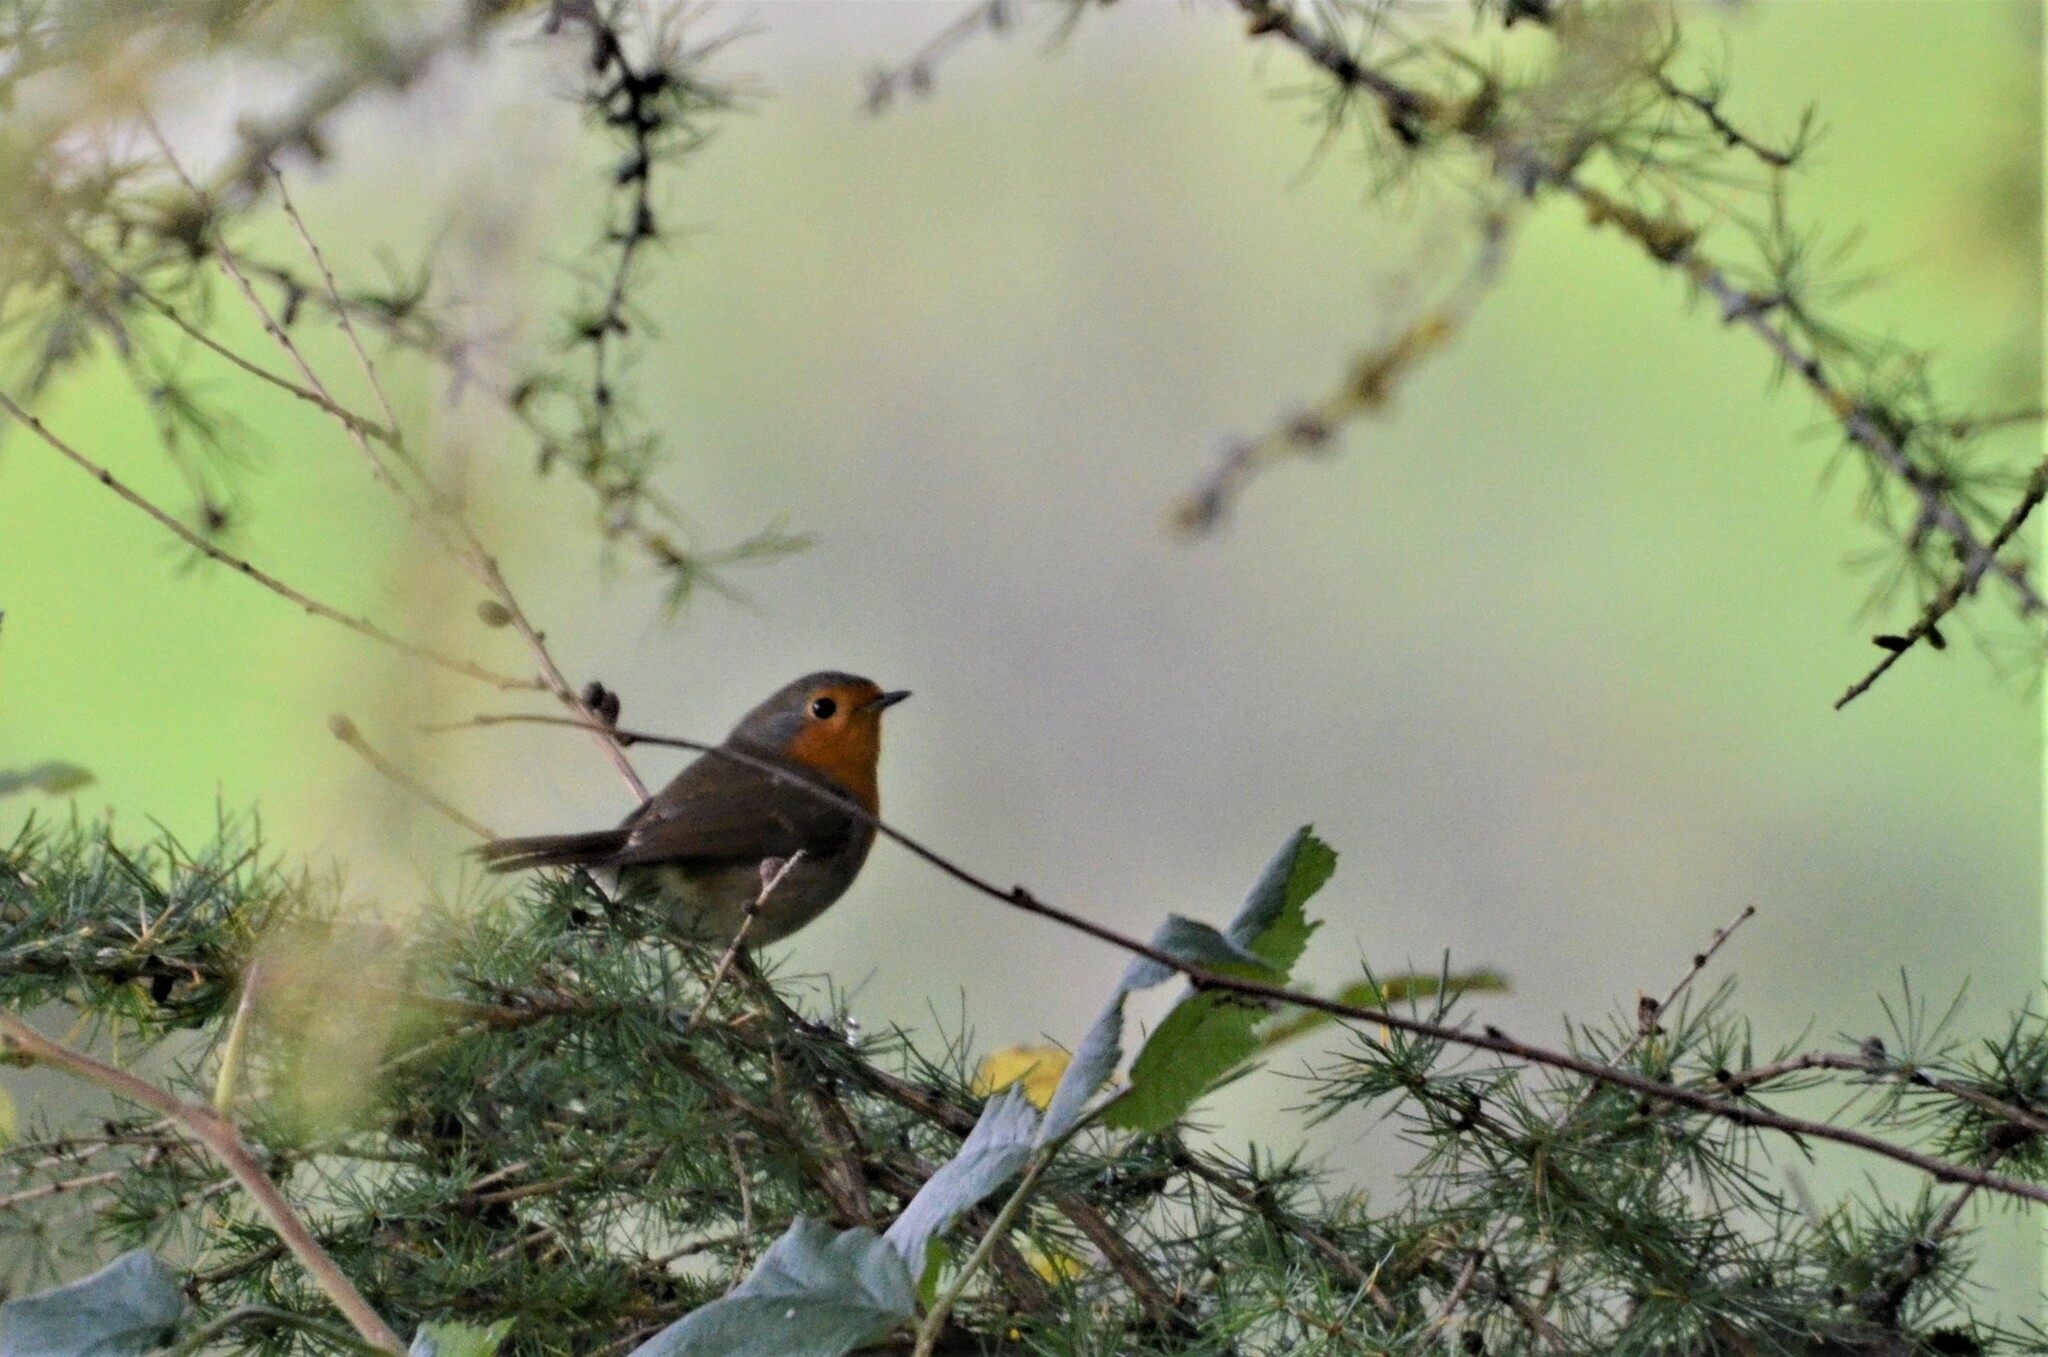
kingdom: Animalia
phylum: Chordata
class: Aves
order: Passeriformes
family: Muscicapidae
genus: Erithacus
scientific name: Erithacus rubecula
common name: European robin
